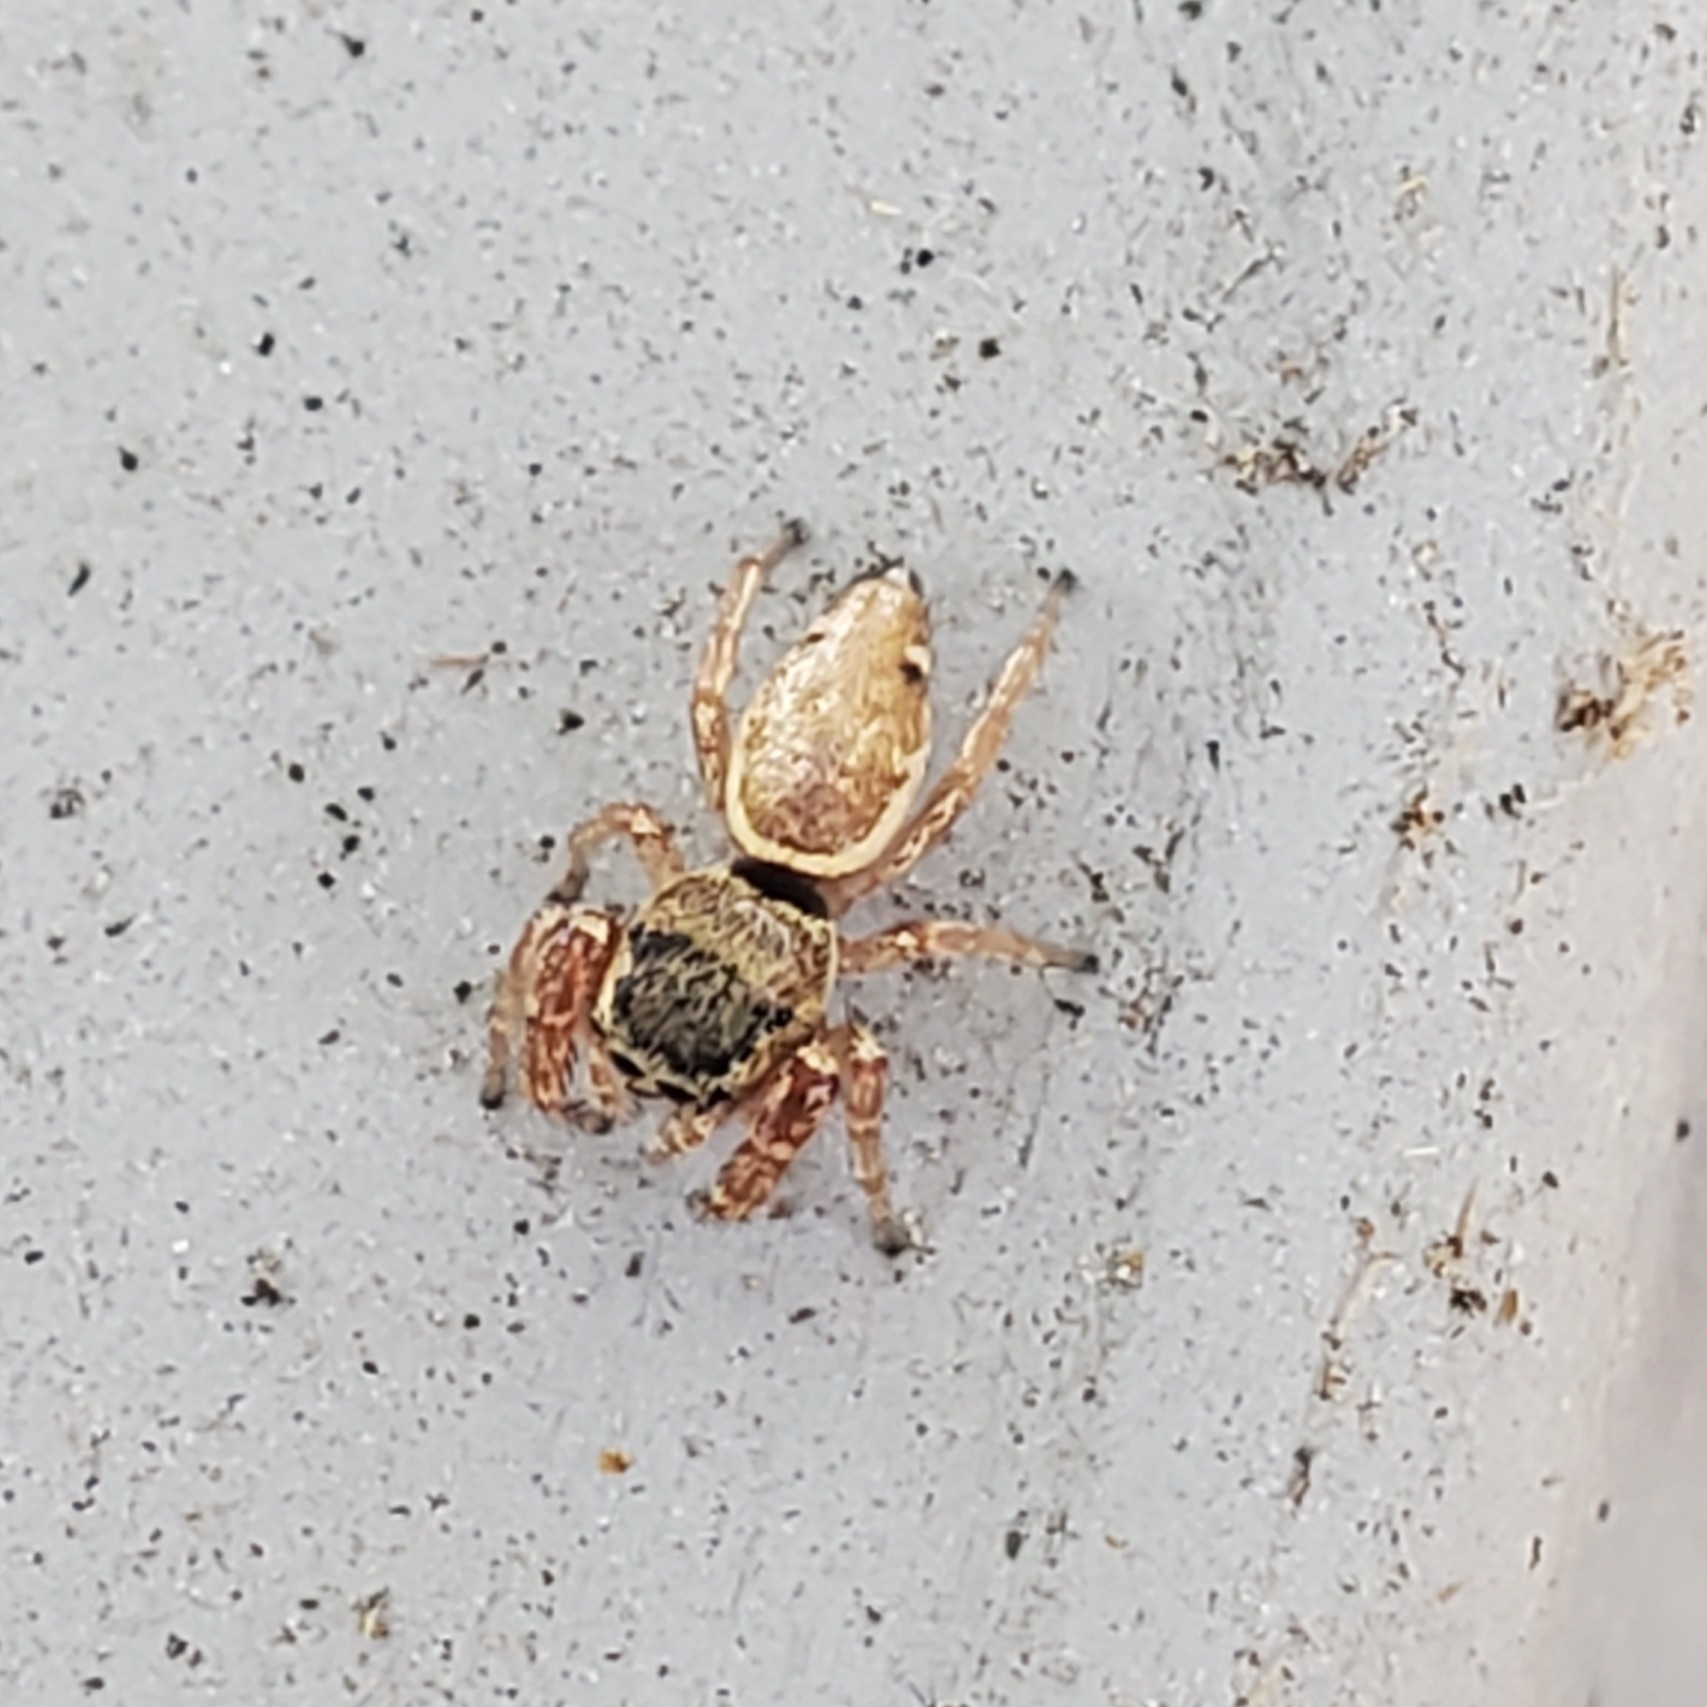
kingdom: Animalia
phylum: Arthropoda
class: Arachnida
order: Araneae
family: Salticidae
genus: Sassacus
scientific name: Sassacus vitis
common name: Jumping spiders
